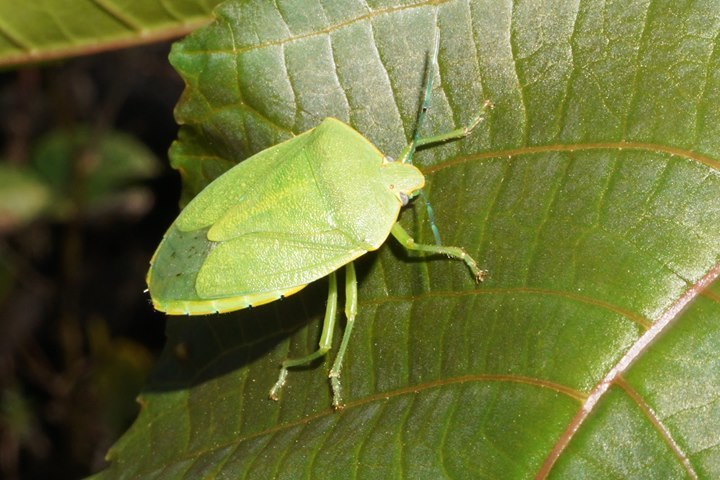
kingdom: Animalia
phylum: Arthropoda
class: Insecta
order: Hemiptera
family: Pentatomidae
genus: Acrosternum
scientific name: Acrosternum marginatum
